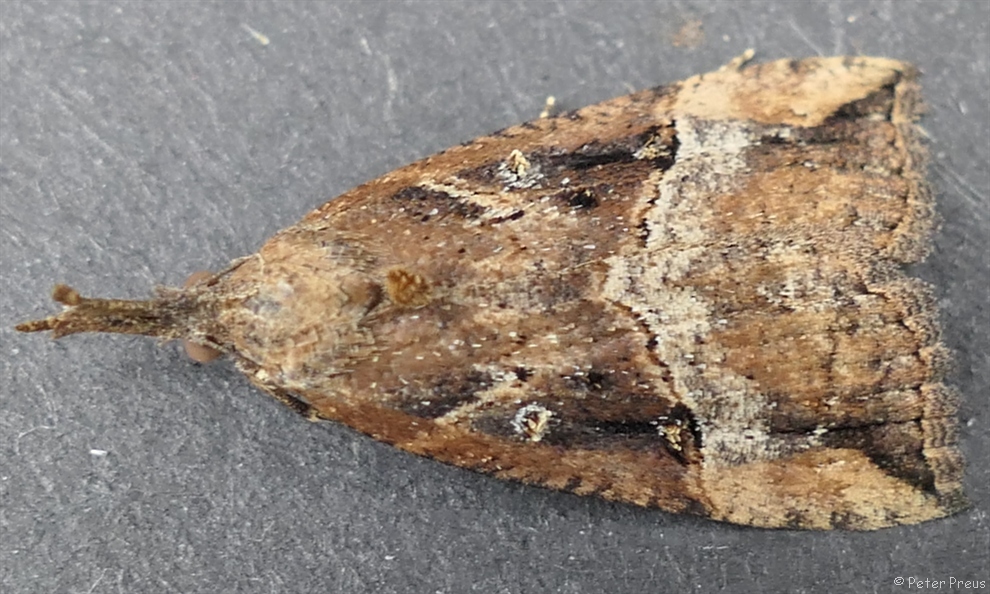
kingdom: Animalia
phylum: Arthropoda
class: Insecta
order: Lepidoptera
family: Erebidae
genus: Hypena
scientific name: Hypena rostralis
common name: Buttoned snout
